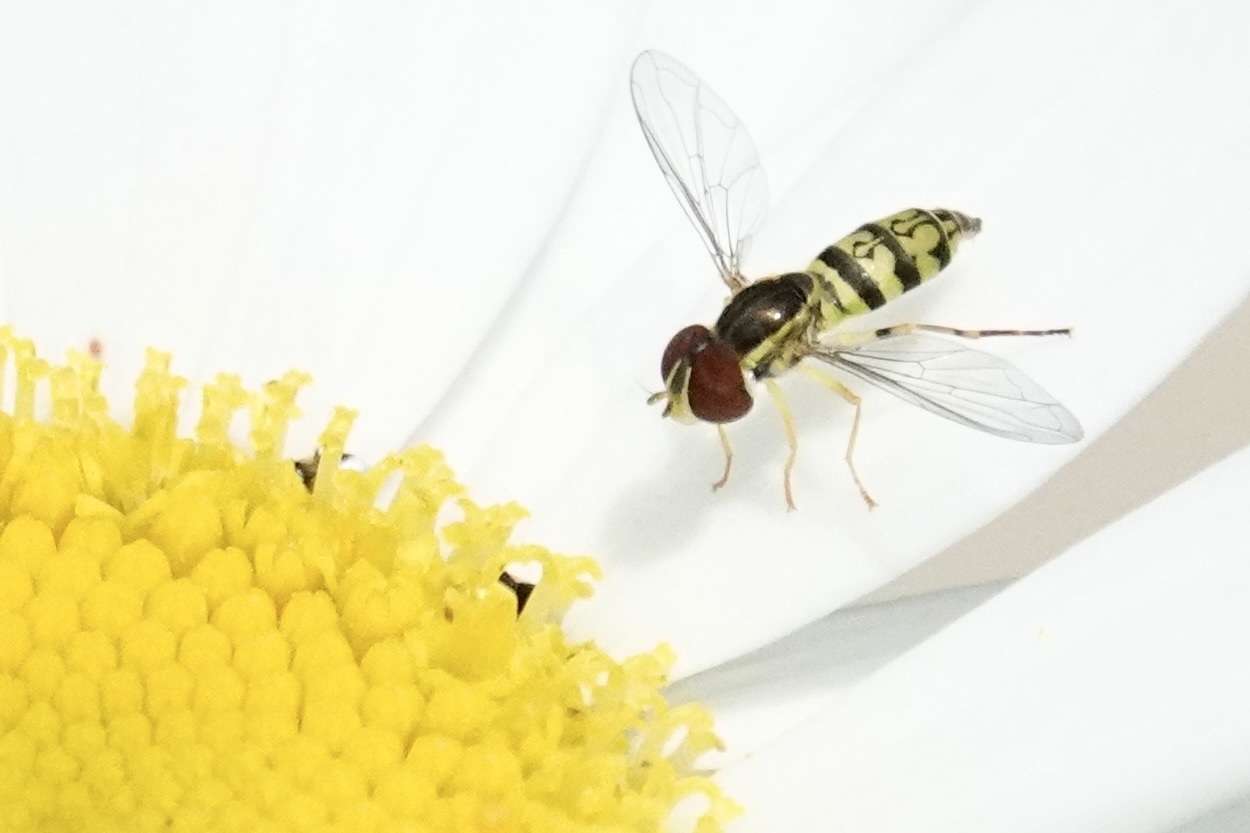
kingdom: Animalia
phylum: Arthropoda
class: Insecta
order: Diptera
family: Syrphidae
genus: Toxomerus
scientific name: Toxomerus geminatus
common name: Eastern calligrapher
